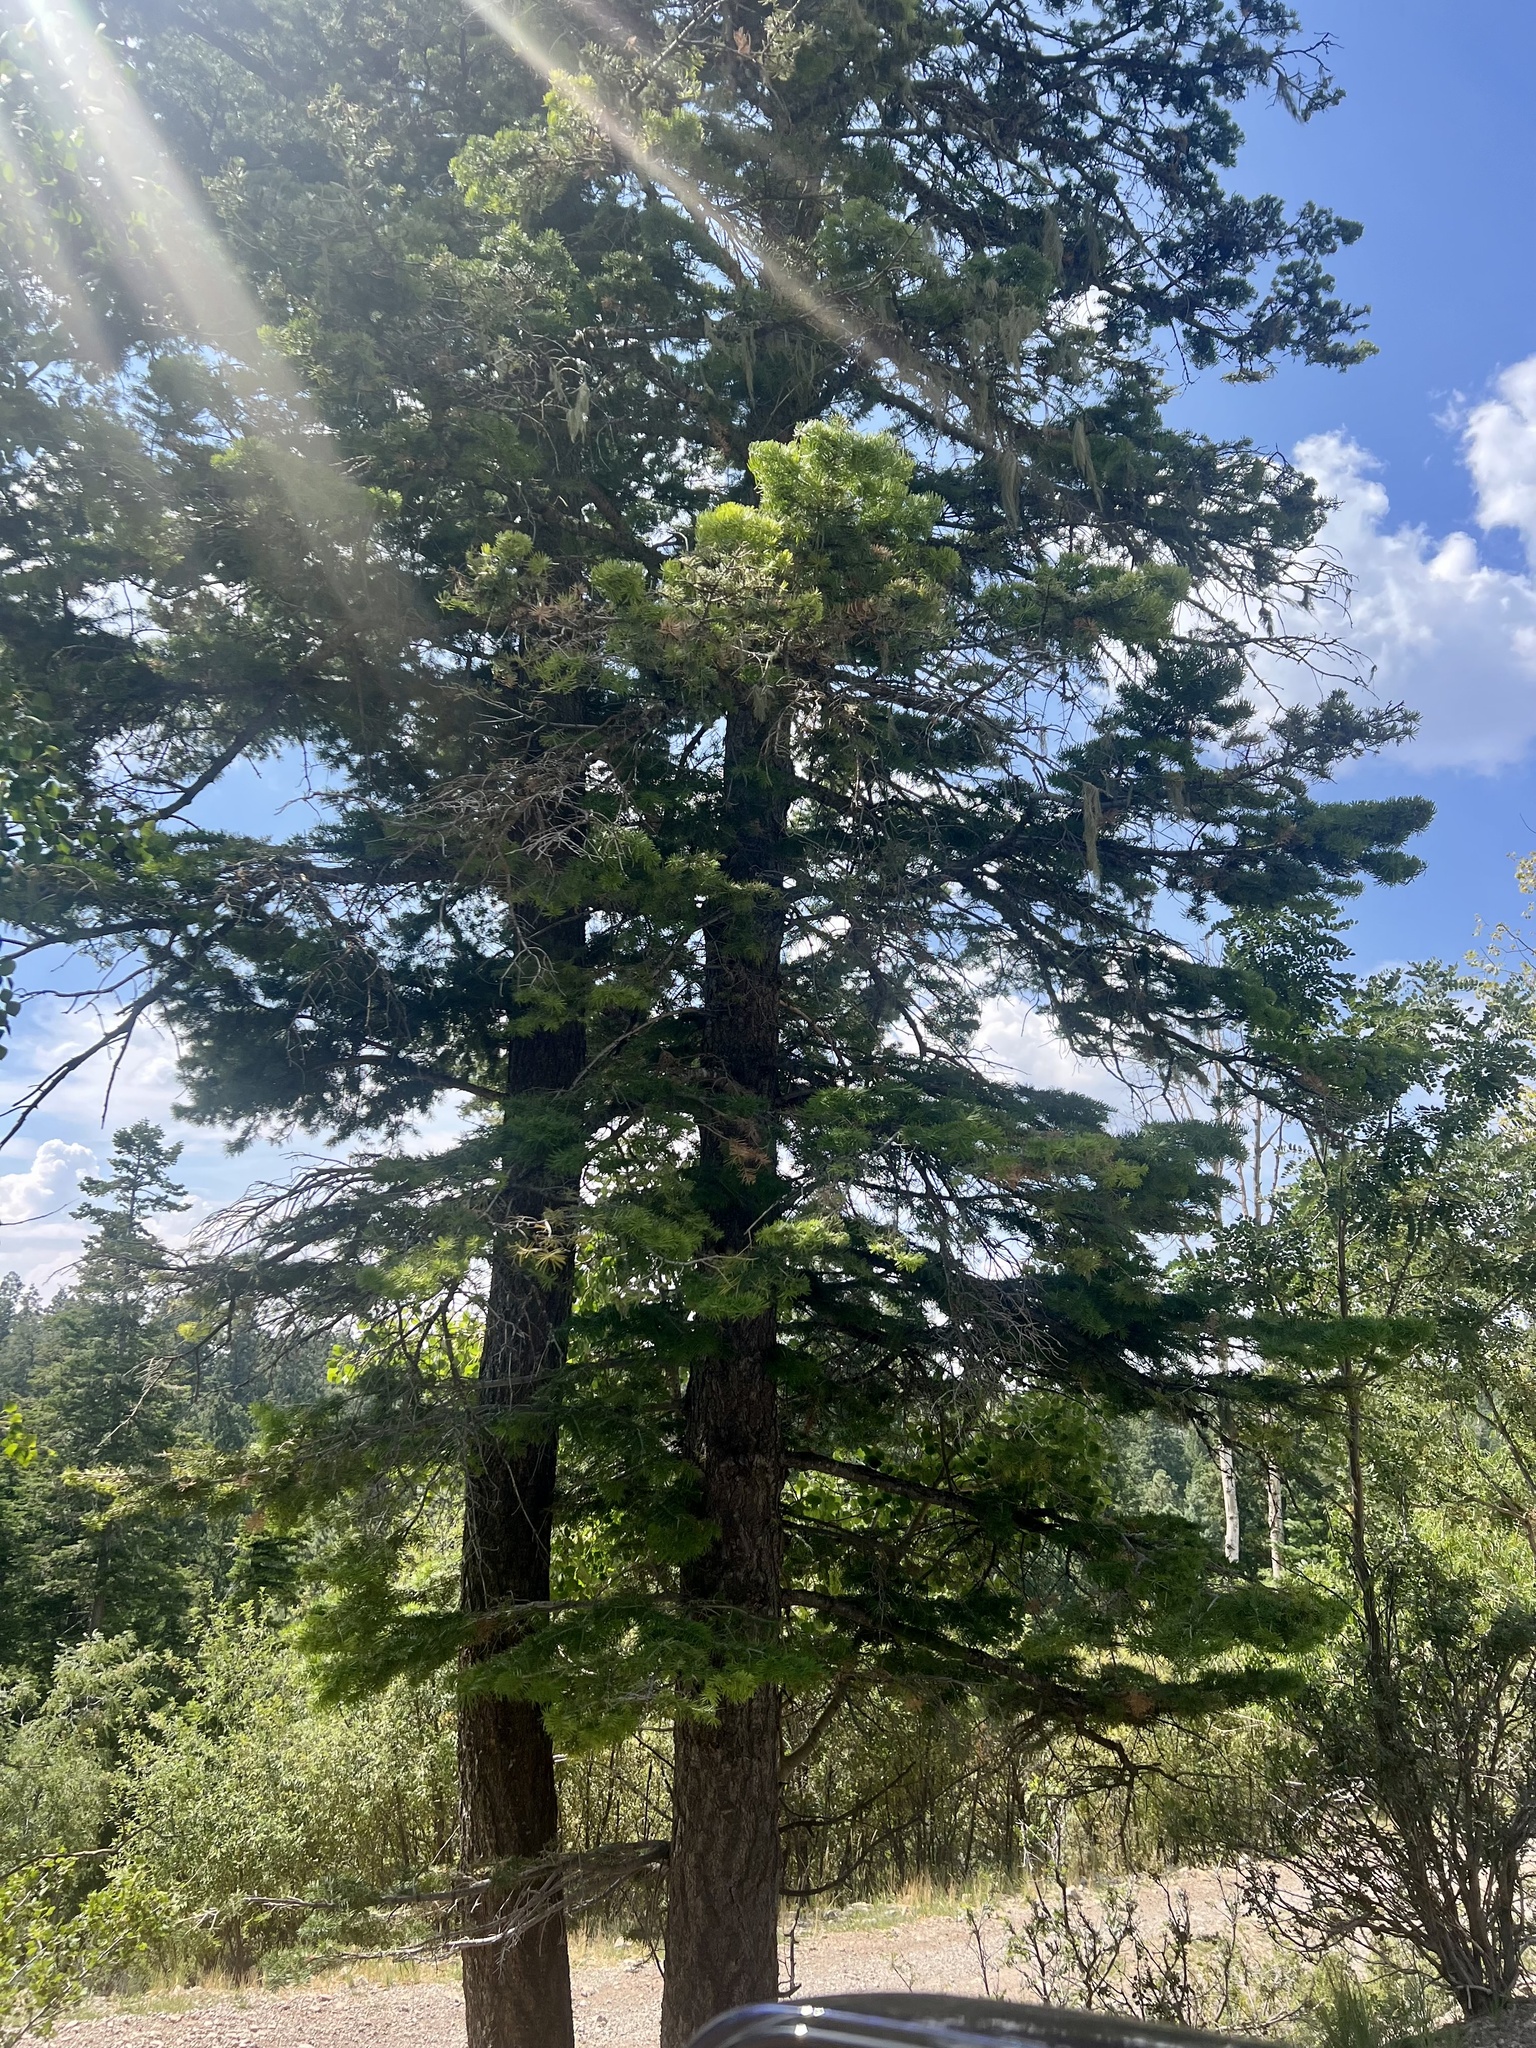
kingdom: Plantae
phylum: Tracheophyta
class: Pinopsida
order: Pinales
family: Pinaceae
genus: Abies
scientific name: Abies concolor
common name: Colorado fir
